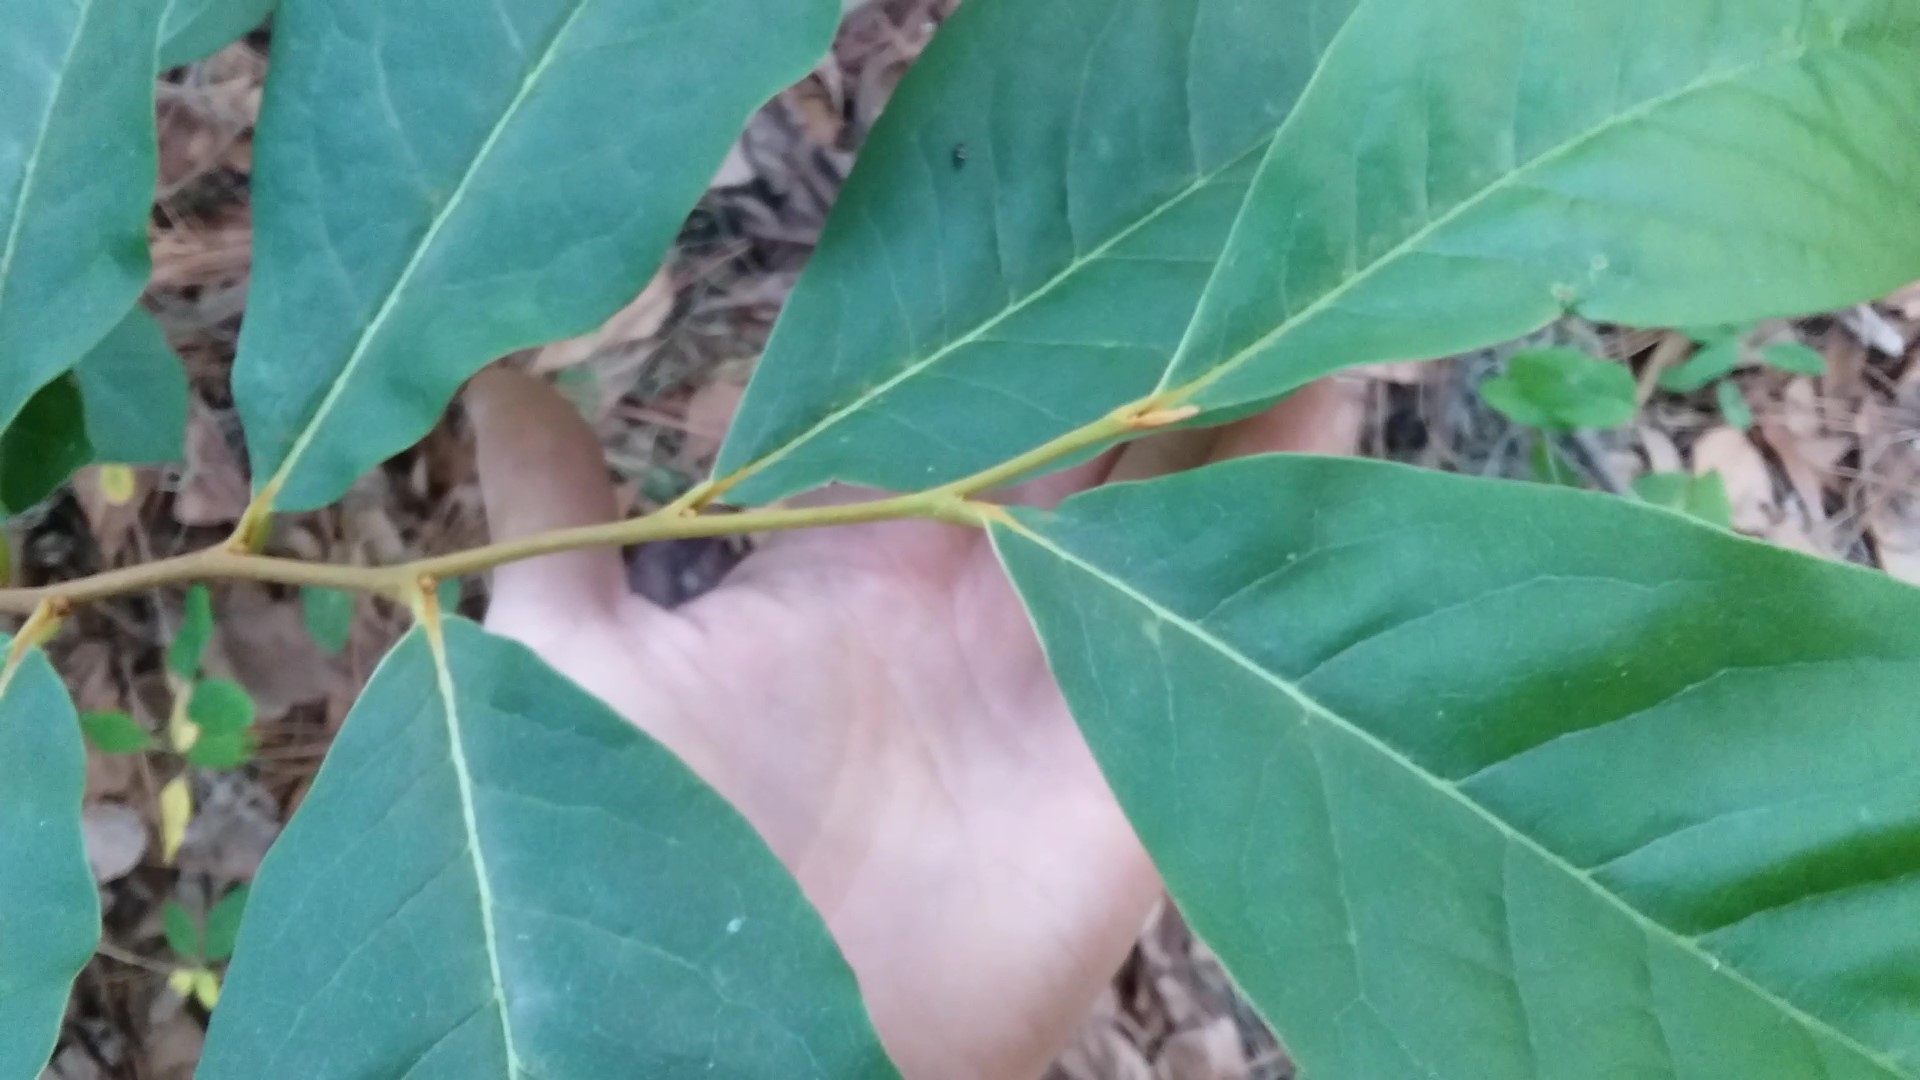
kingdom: Plantae
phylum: Tracheophyta
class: Magnoliopsida
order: Magnoliales
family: Annonaceae
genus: Asimina
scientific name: Asimina parviflora
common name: Dwarf pawpaw
